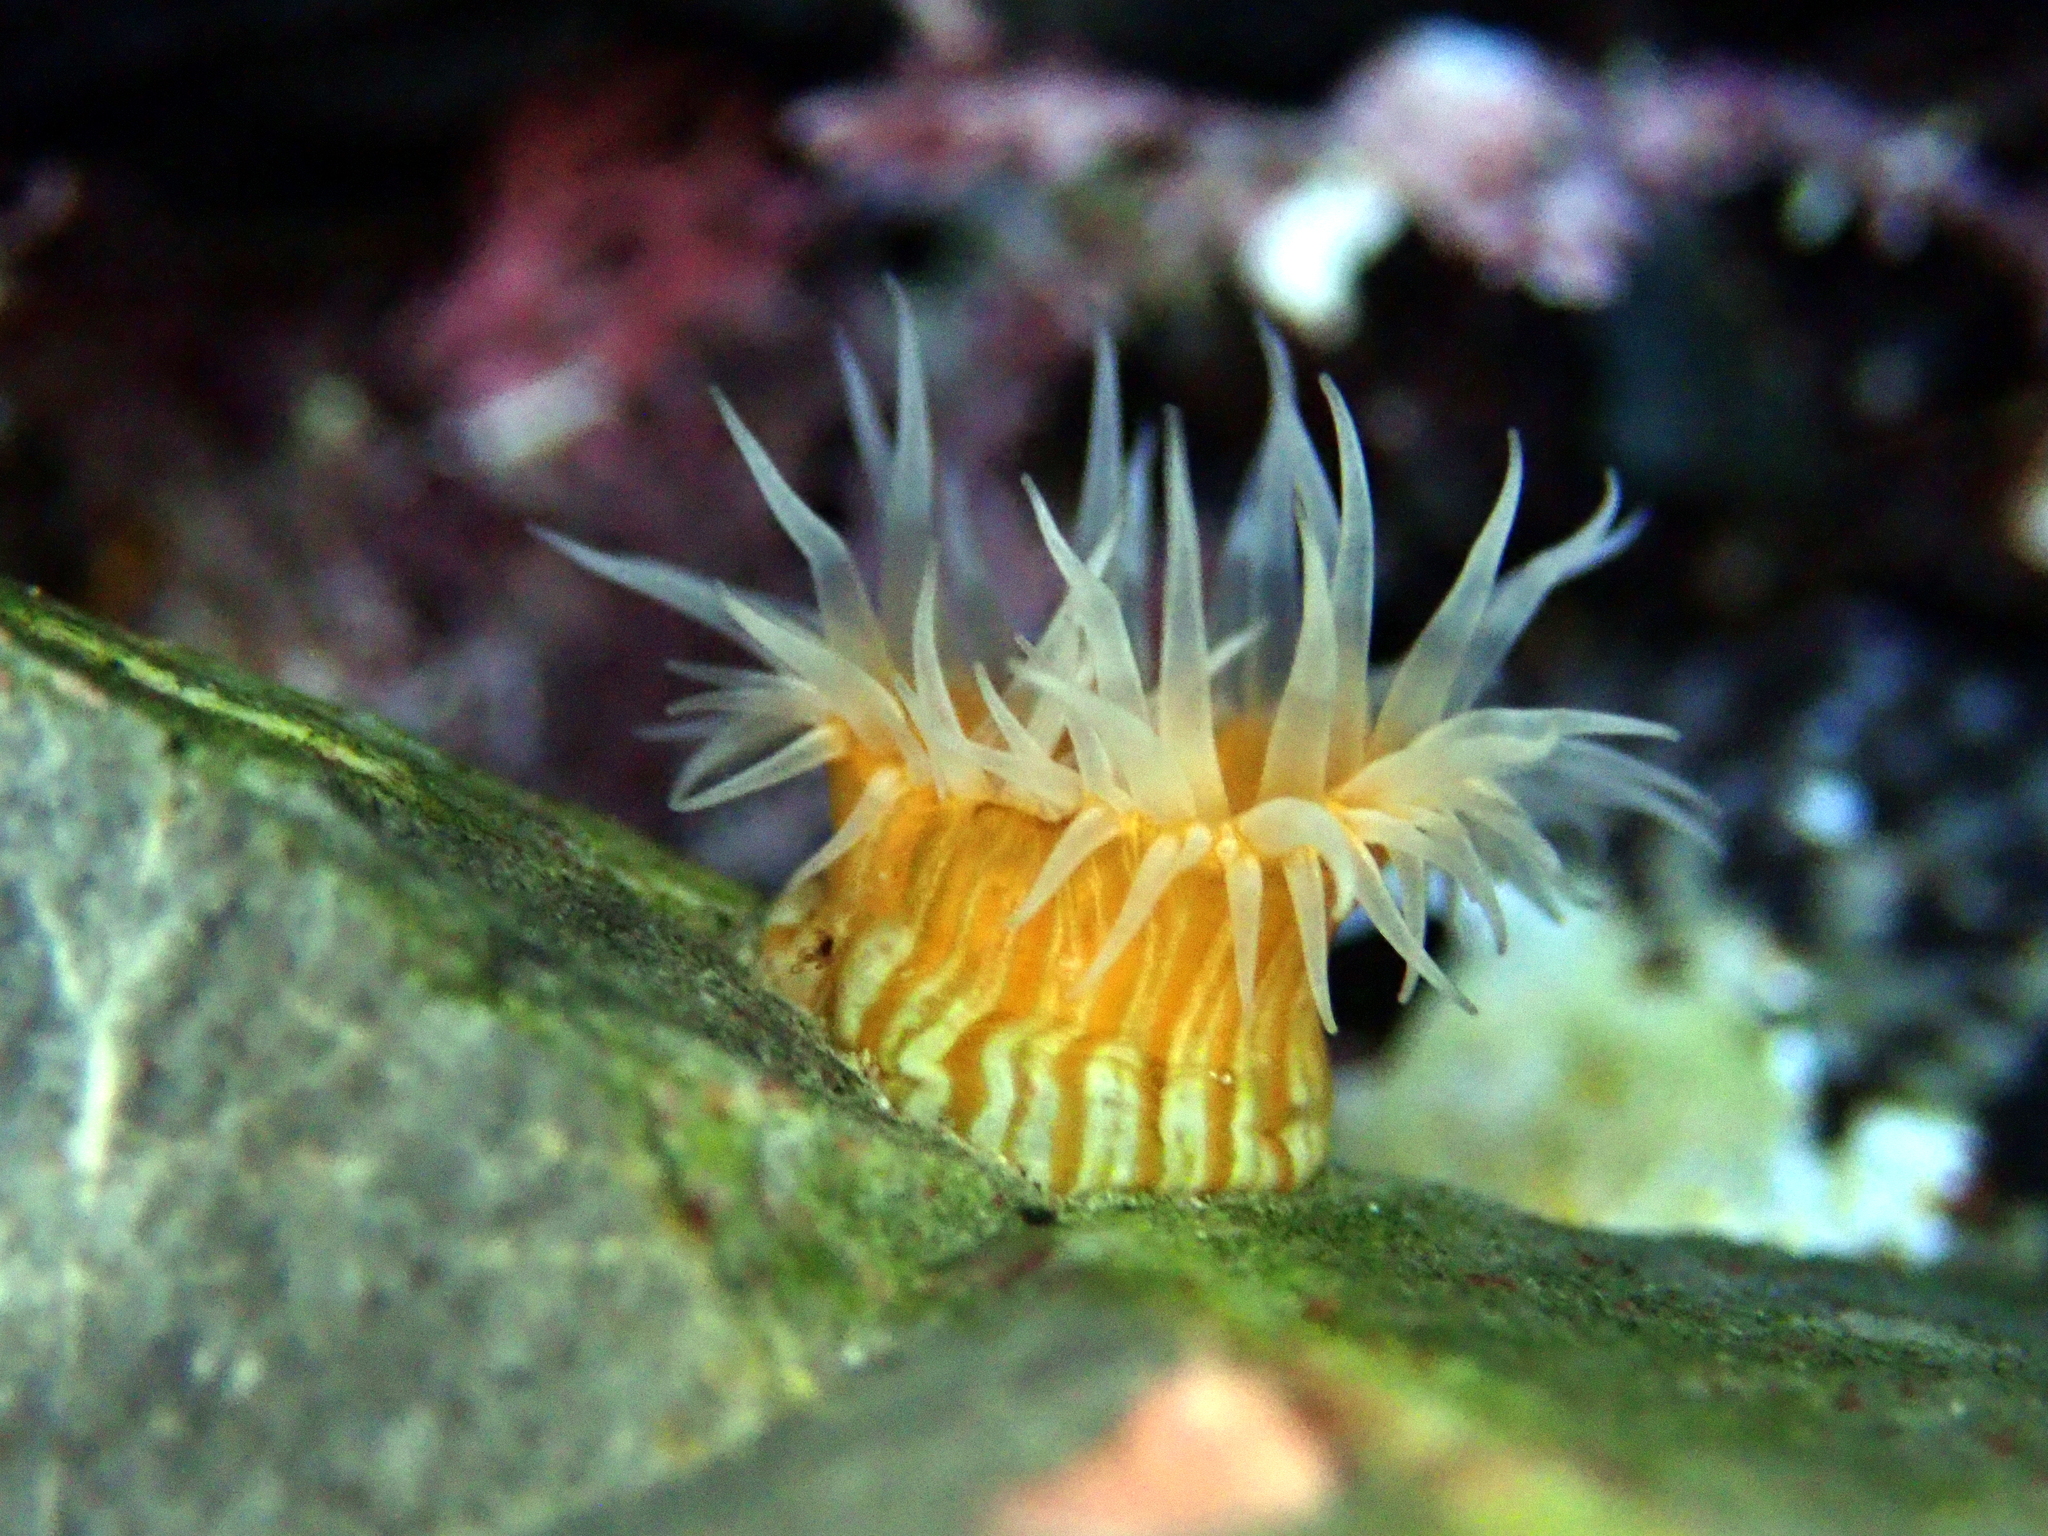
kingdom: Animalia
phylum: Cnidaria
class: Anthozoa
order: Actiniaria
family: Sagartiidae
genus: Anthothoe
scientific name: Anthothoe albocincta
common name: Orange striped anemone
